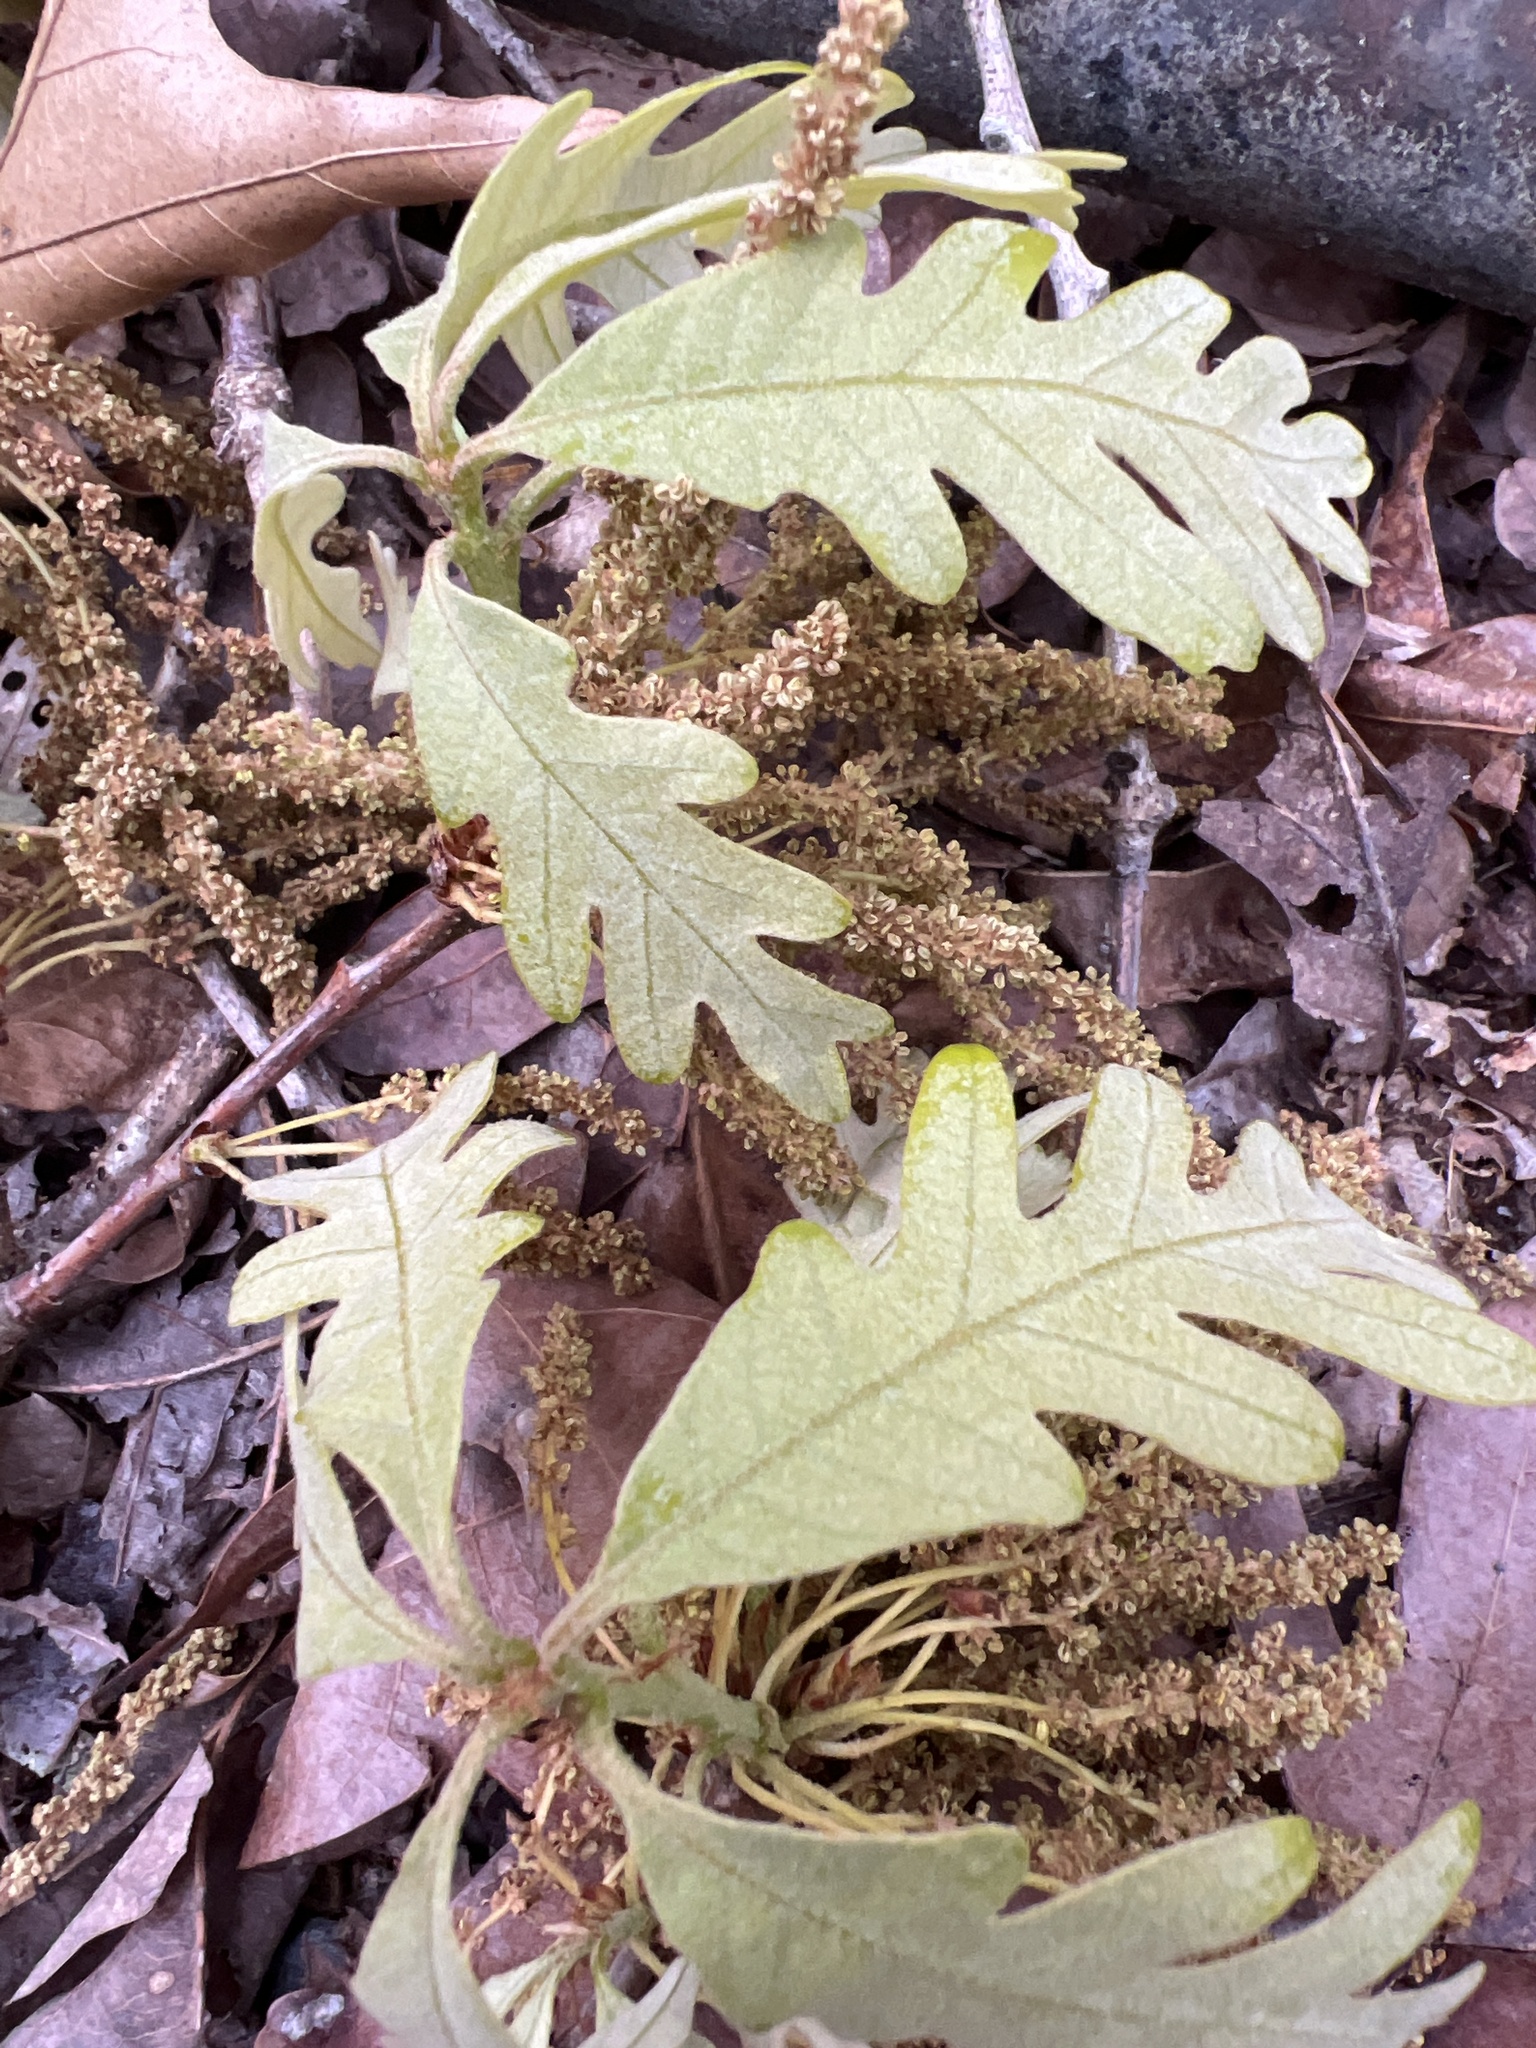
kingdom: Plantae
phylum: Tracheophyta
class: Magnoliopsida
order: Fagales
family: Fagaceae
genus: Quercus
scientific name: Quercus alba
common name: White oak
